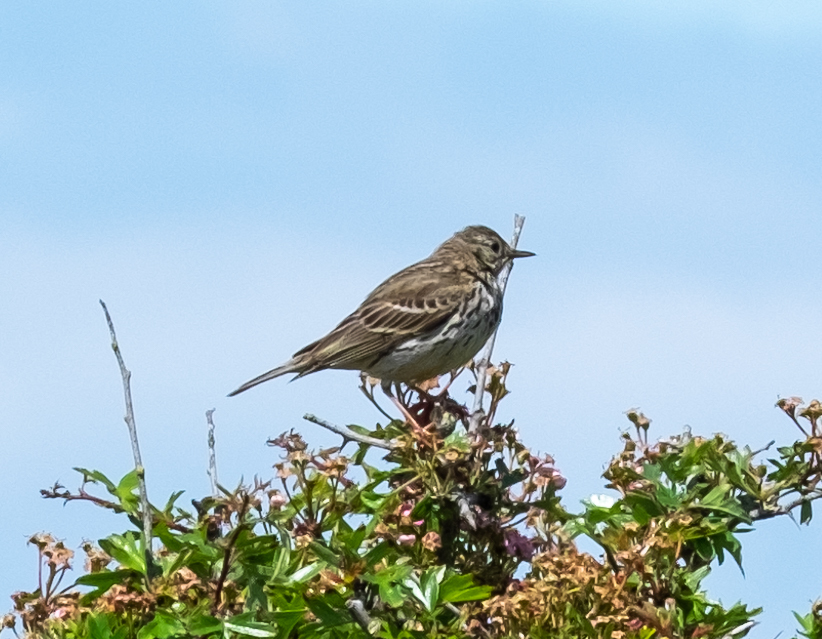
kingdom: Animalia
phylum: Chordata
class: Aves
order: Passeriformes
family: Motacillidae
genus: Anthus
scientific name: Anthus pratensis
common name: Meadow pipit
